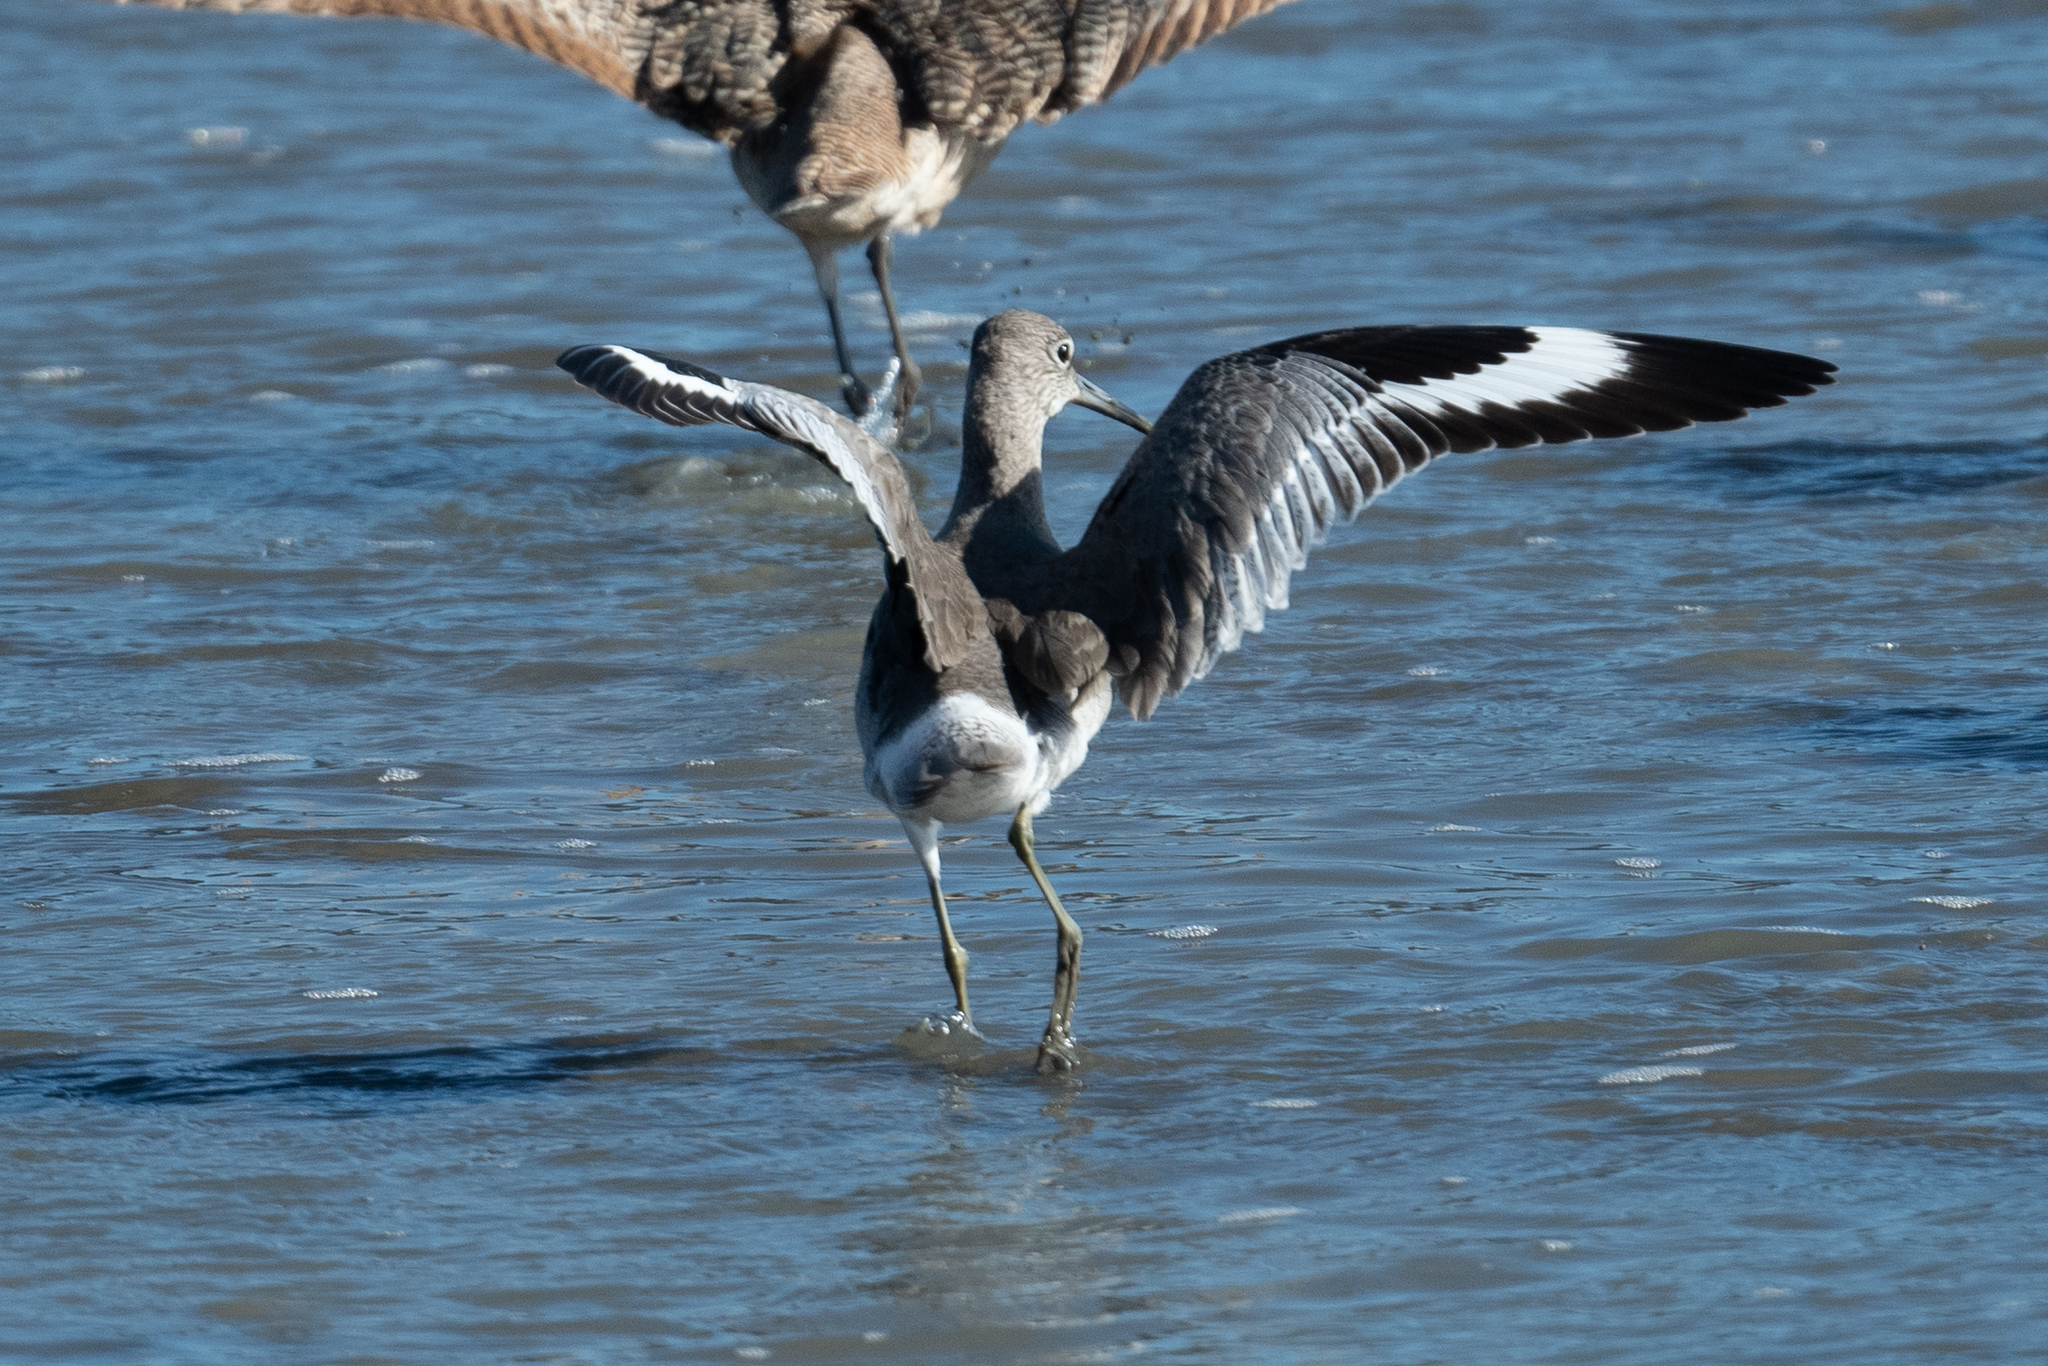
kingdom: Animalia
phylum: Chordata
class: Aves
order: Charadriiformes
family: Scolopacidae
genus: Tringa
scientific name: Tringa semipalmata
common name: Willet
